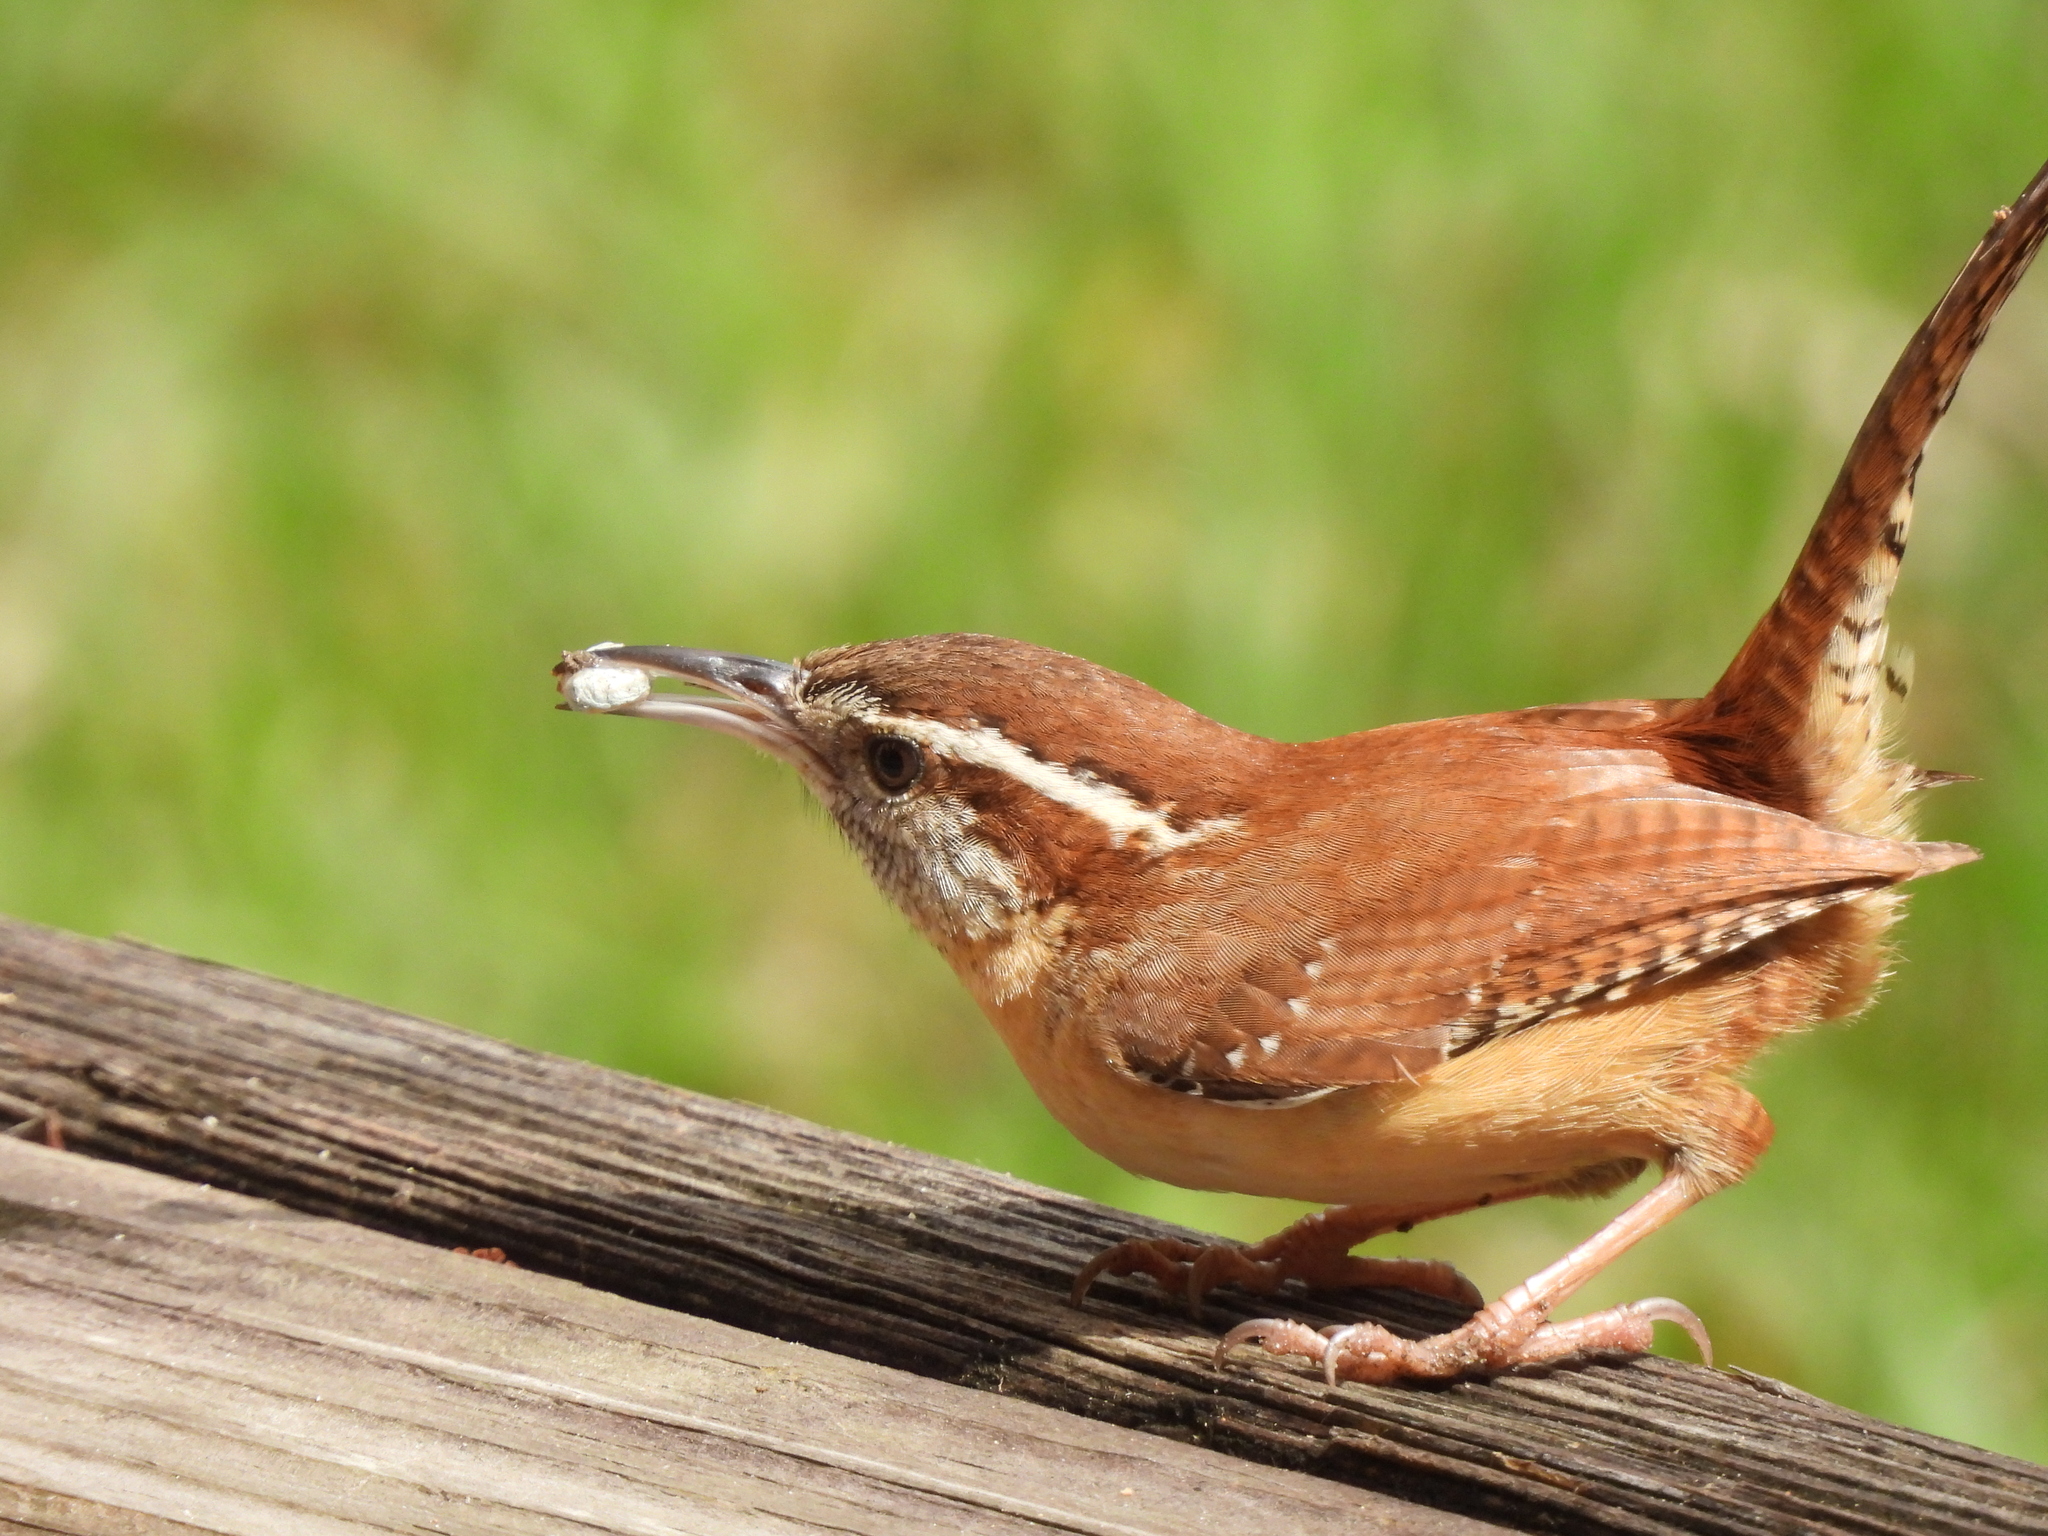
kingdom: Animalia
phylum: Chordata
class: Aves
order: Passeriformes
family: Troglodytidae
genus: Thryothorus
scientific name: Thryothorus ludovicianus
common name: Carolina wren
